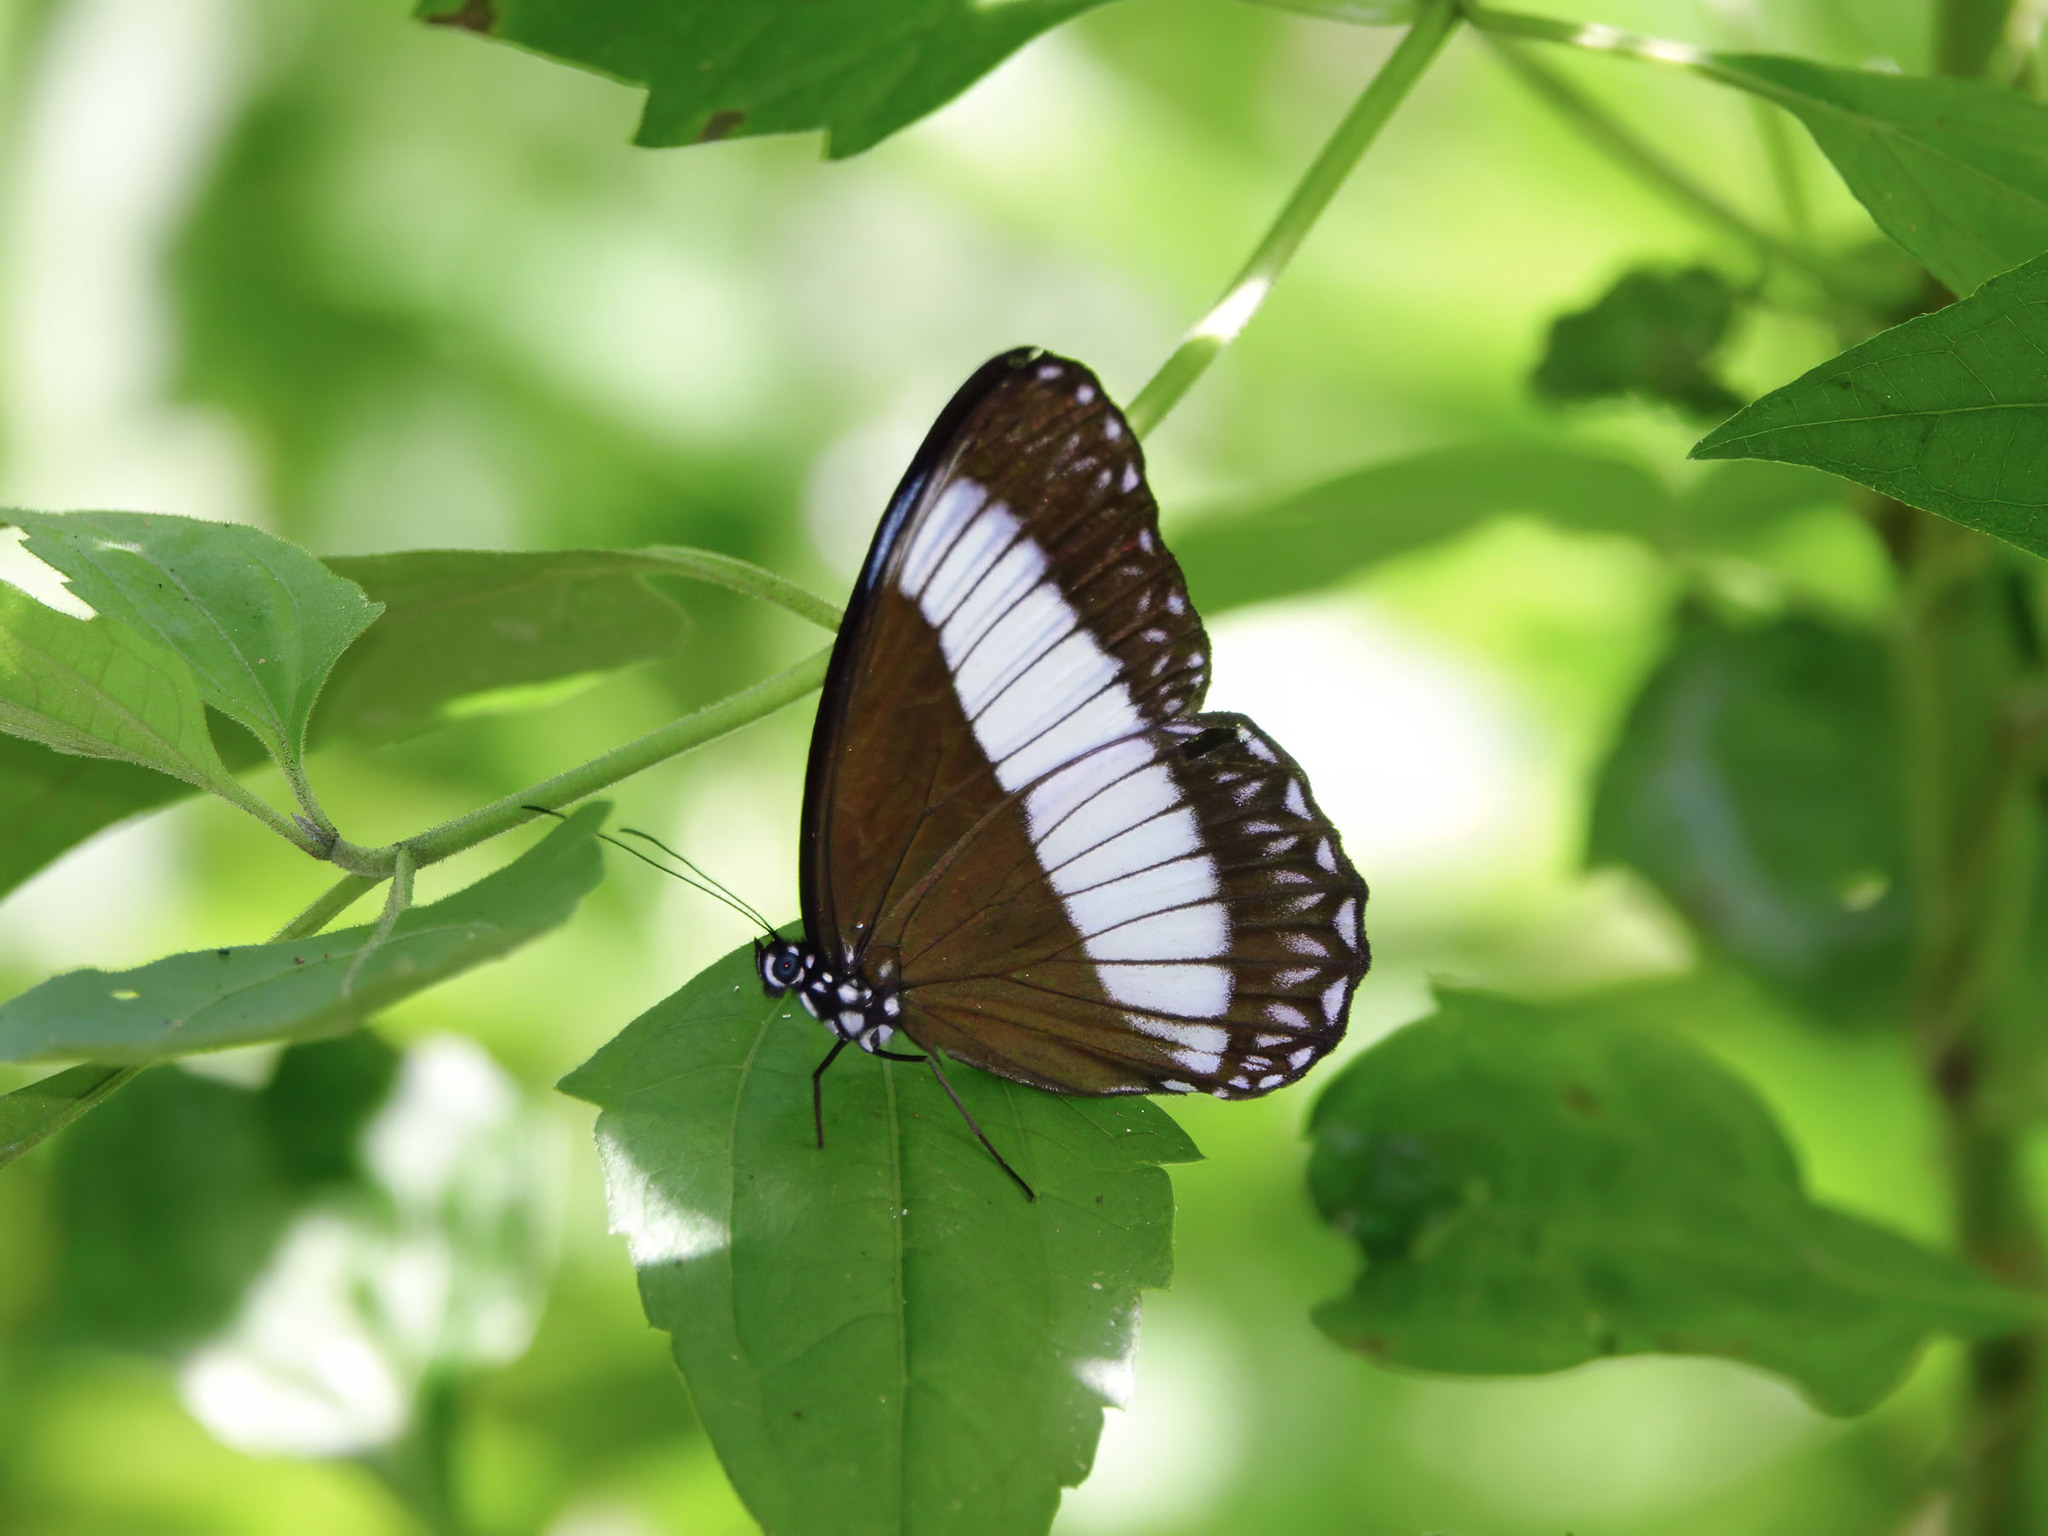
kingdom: Animalia
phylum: Arthropoda
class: Insecta
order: Lepidoptera
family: Nymphalidae
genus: Zethera
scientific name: Zethera pimplea
